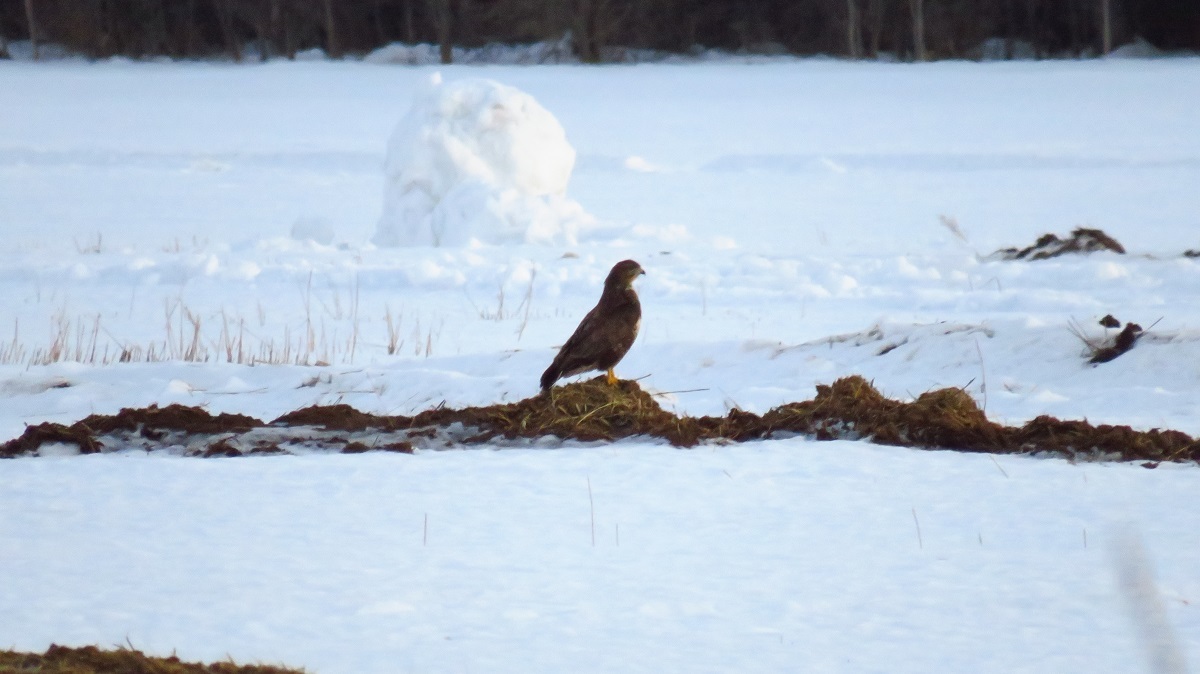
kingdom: Animalia
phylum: Chordata
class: Aves
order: Accipitriformes
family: Accipitridae
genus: Buteo
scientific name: Buteo buteo
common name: Common buzzard
